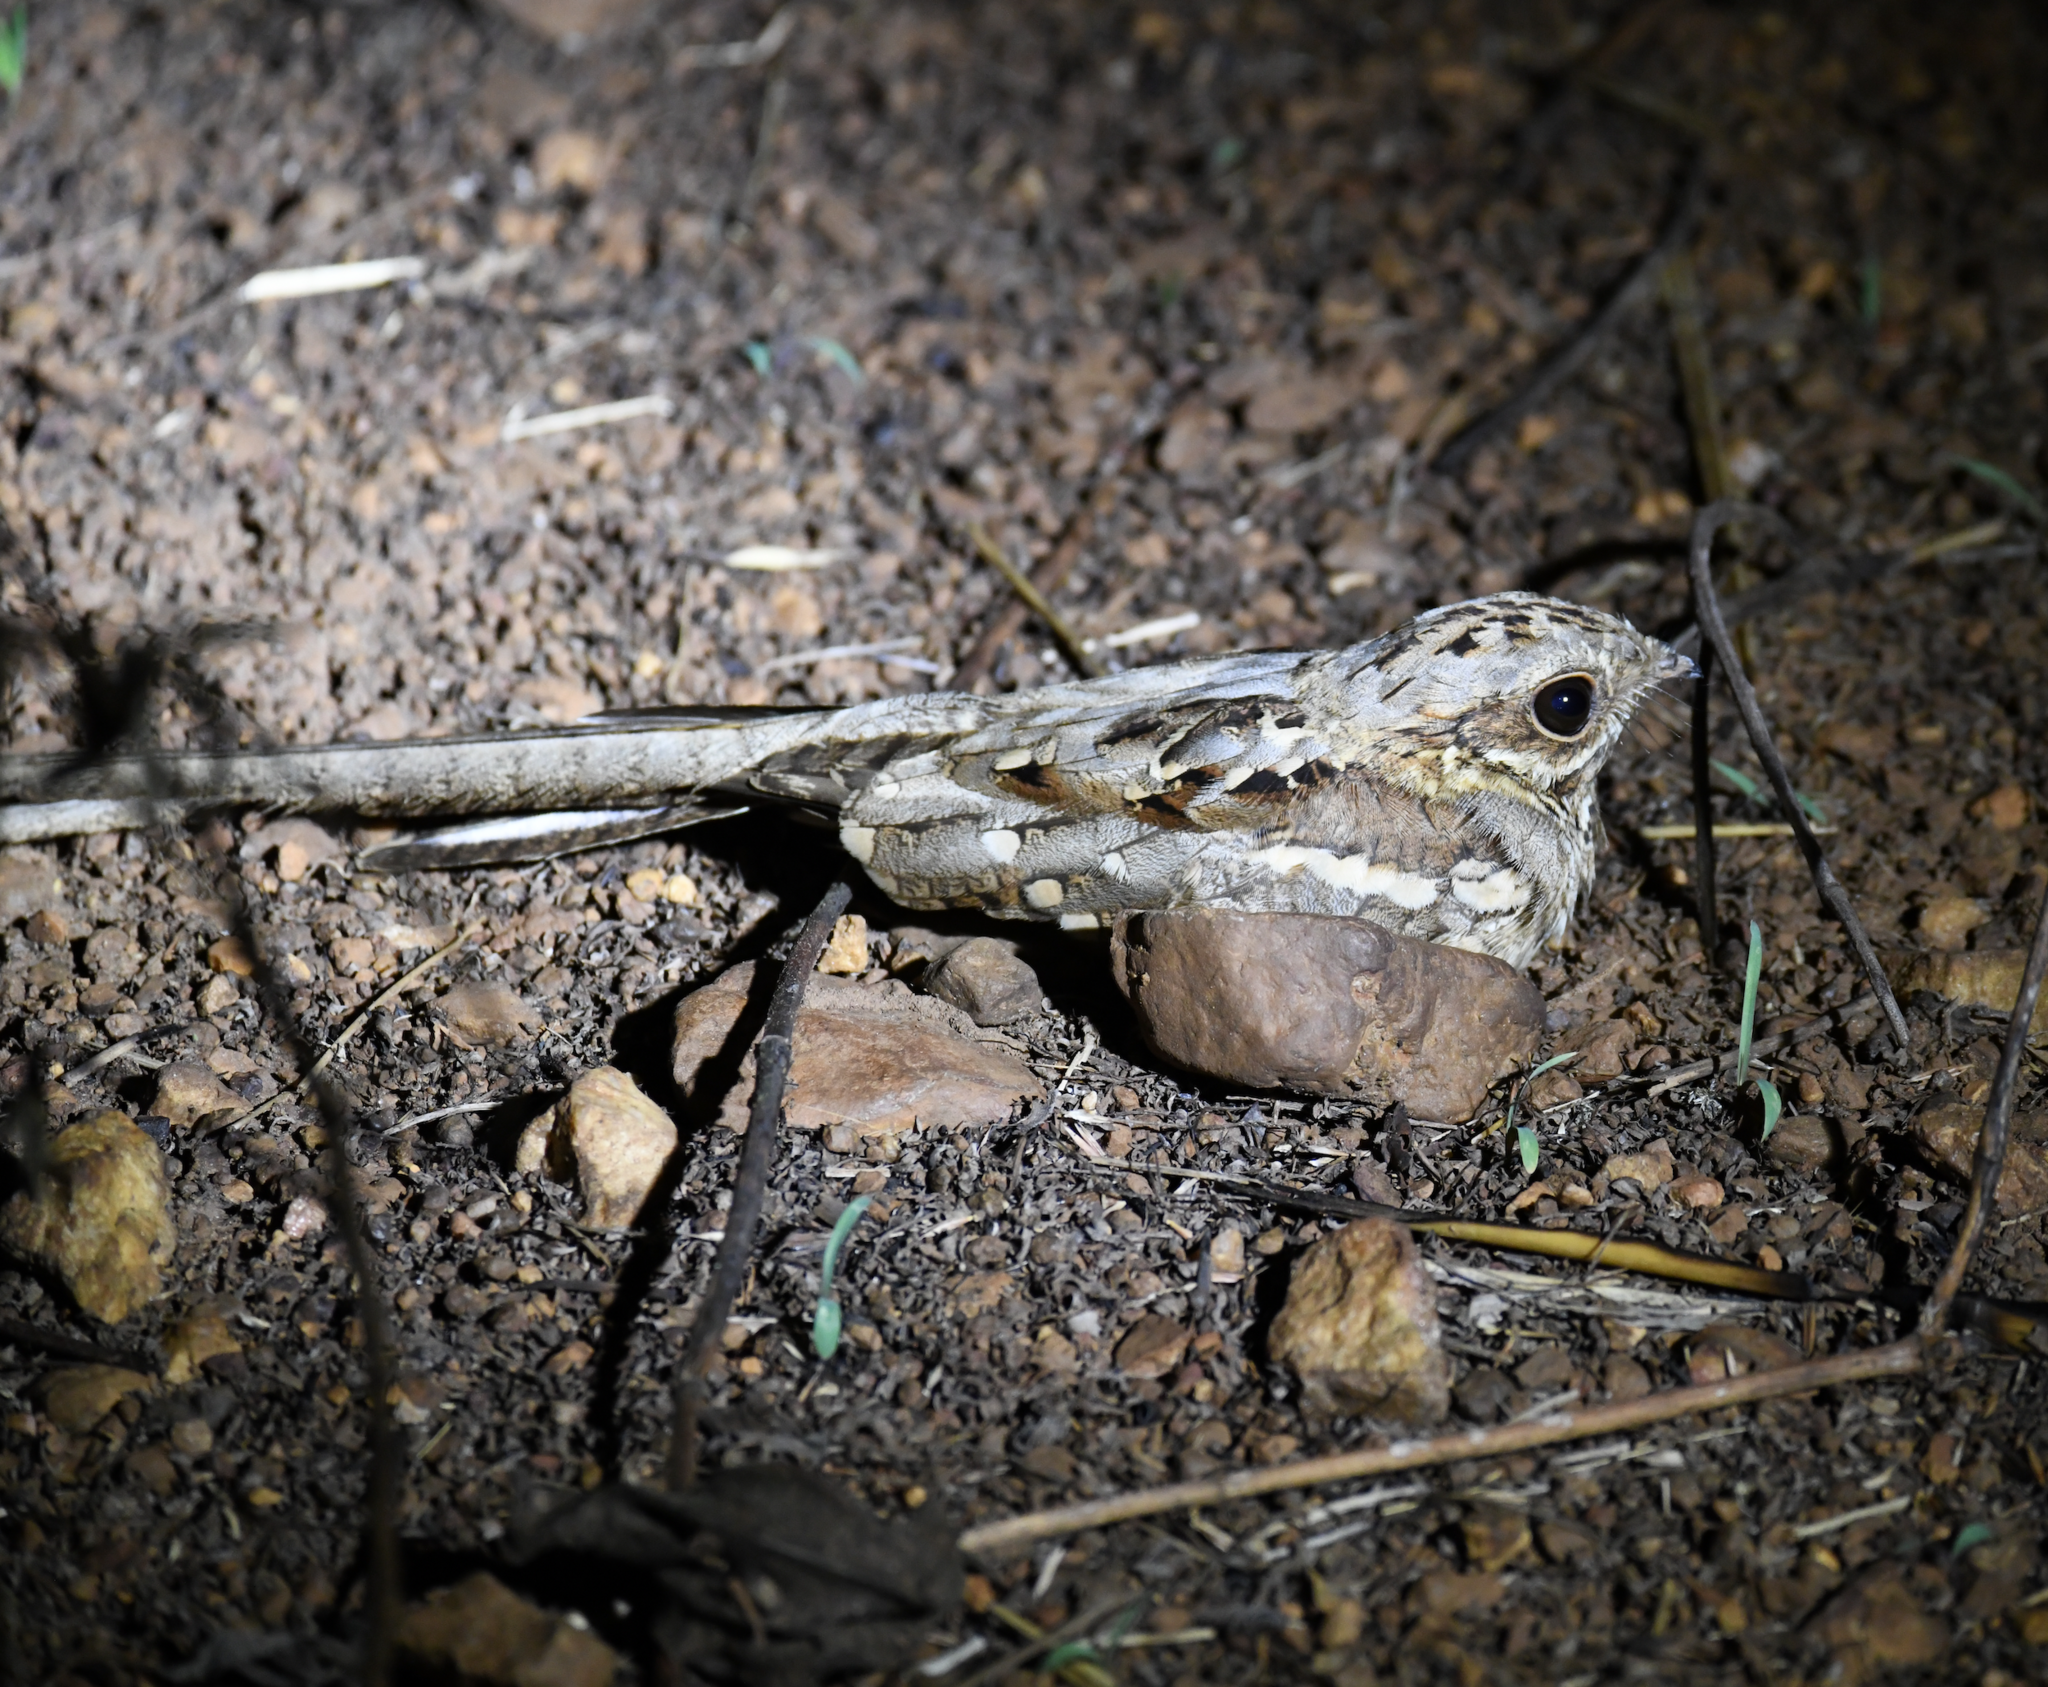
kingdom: Animalia
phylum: Chordata
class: Aves
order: Caprimulgiformes
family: Caprimulgidae
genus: Caprimulgus
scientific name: Caprimulgus climacurus
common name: Long-tailed nightjar
